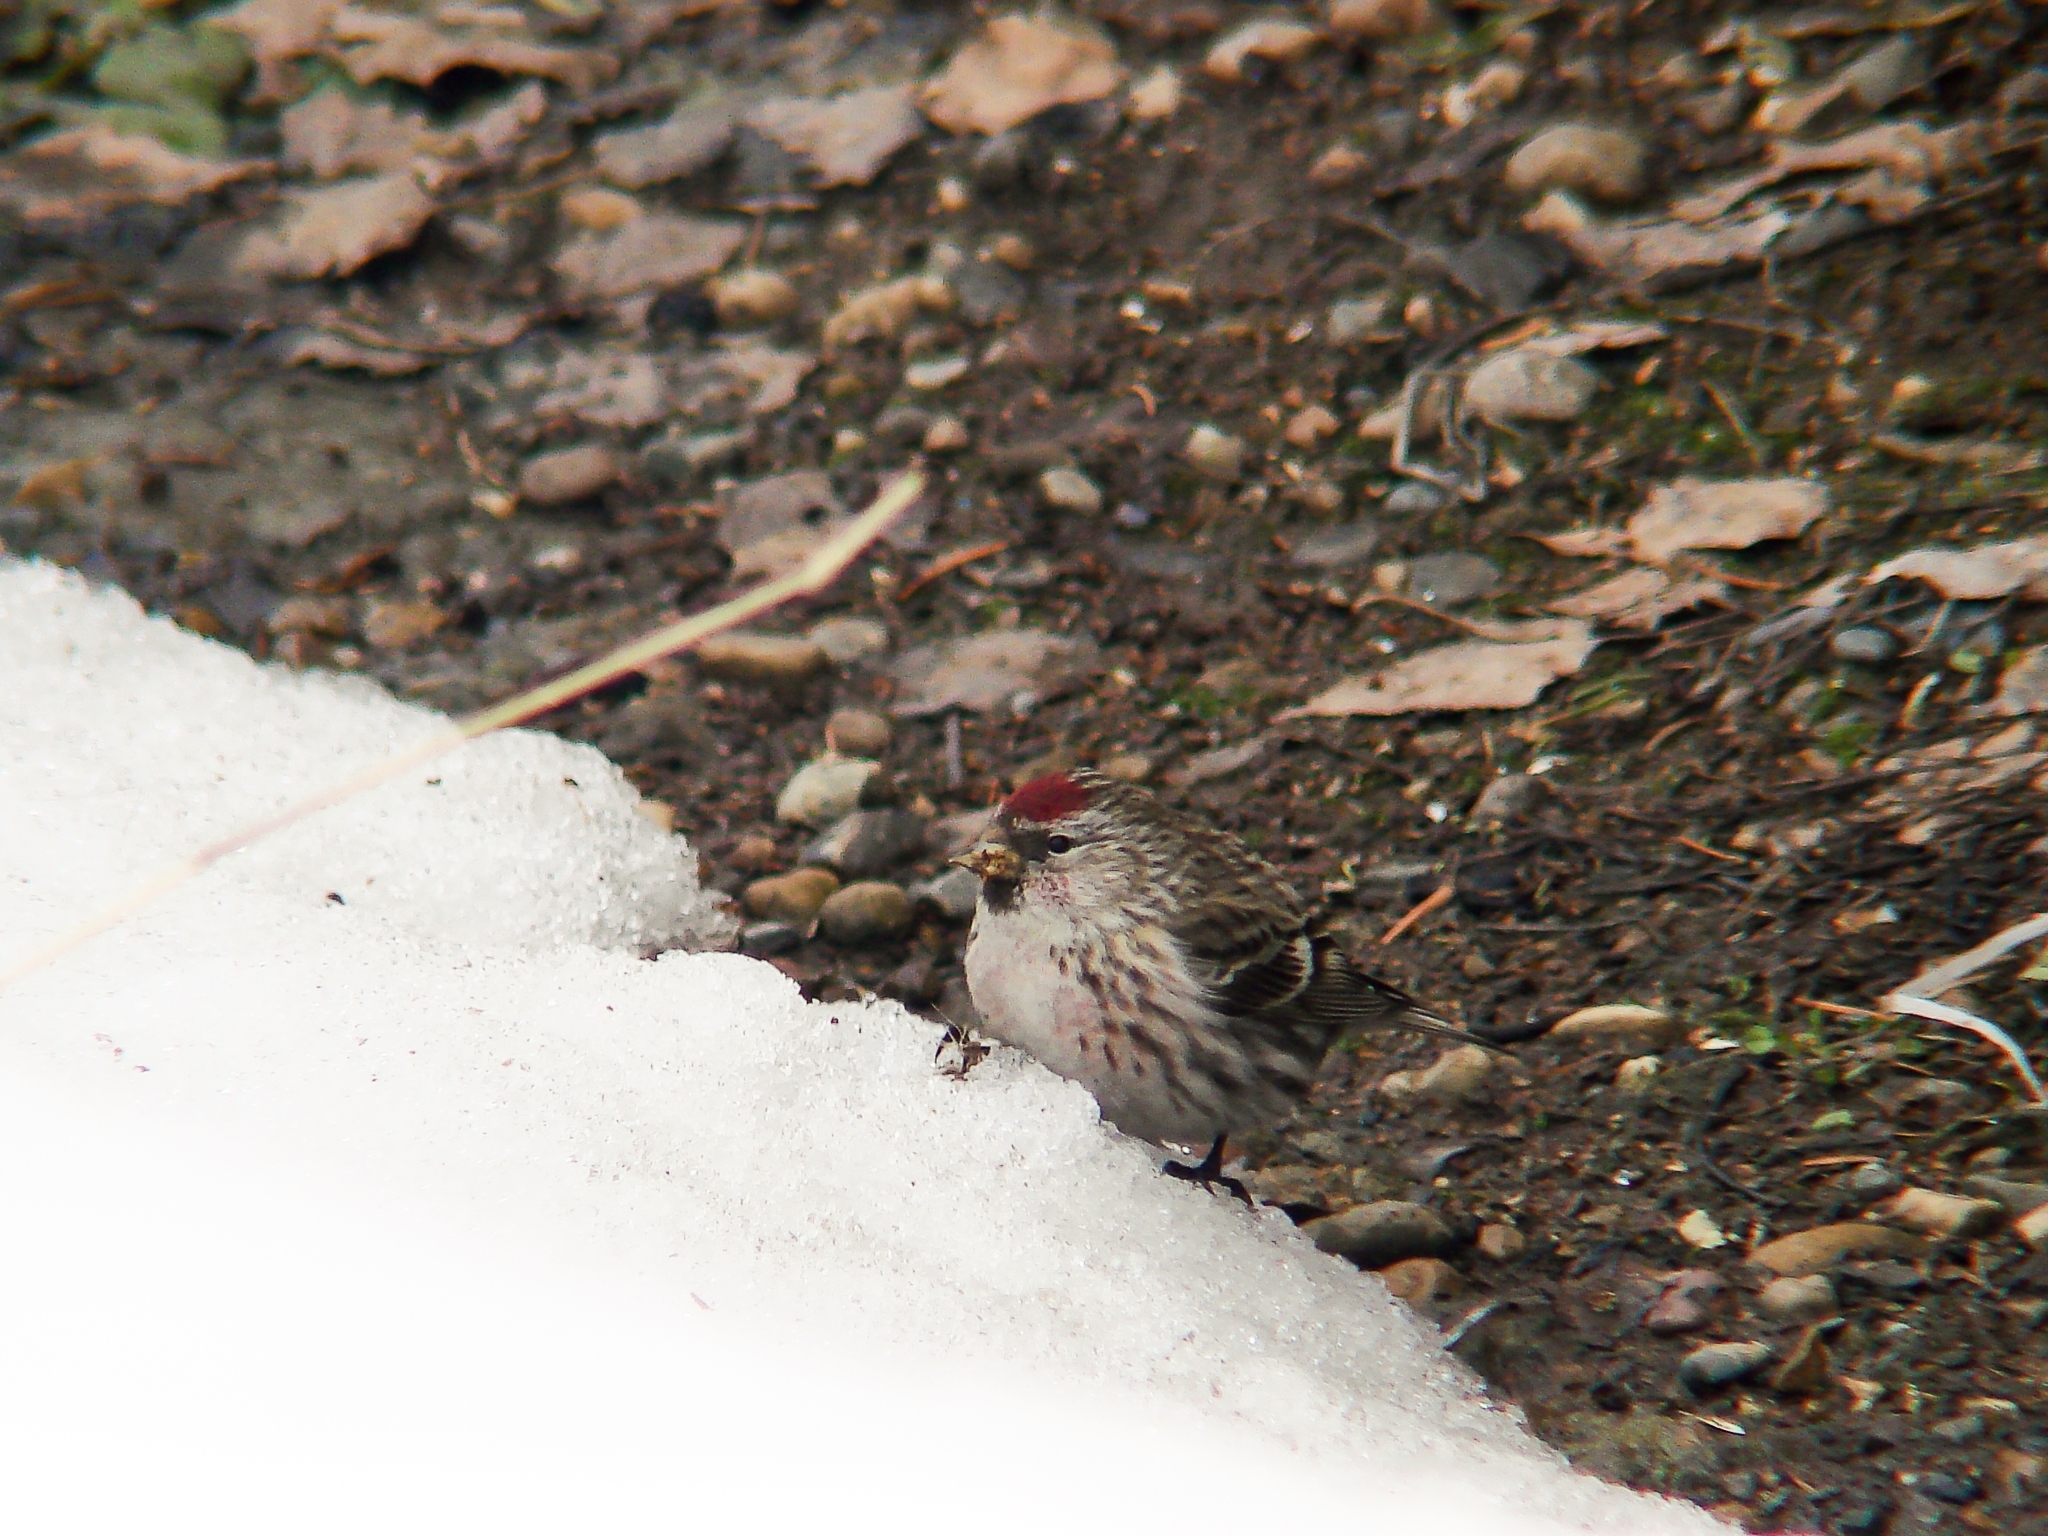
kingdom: Animalia
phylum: Chordata
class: Aves
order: Passeriformes
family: Fringillidae
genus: Acanthis
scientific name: Acanthis flammea
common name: Common redpoll
